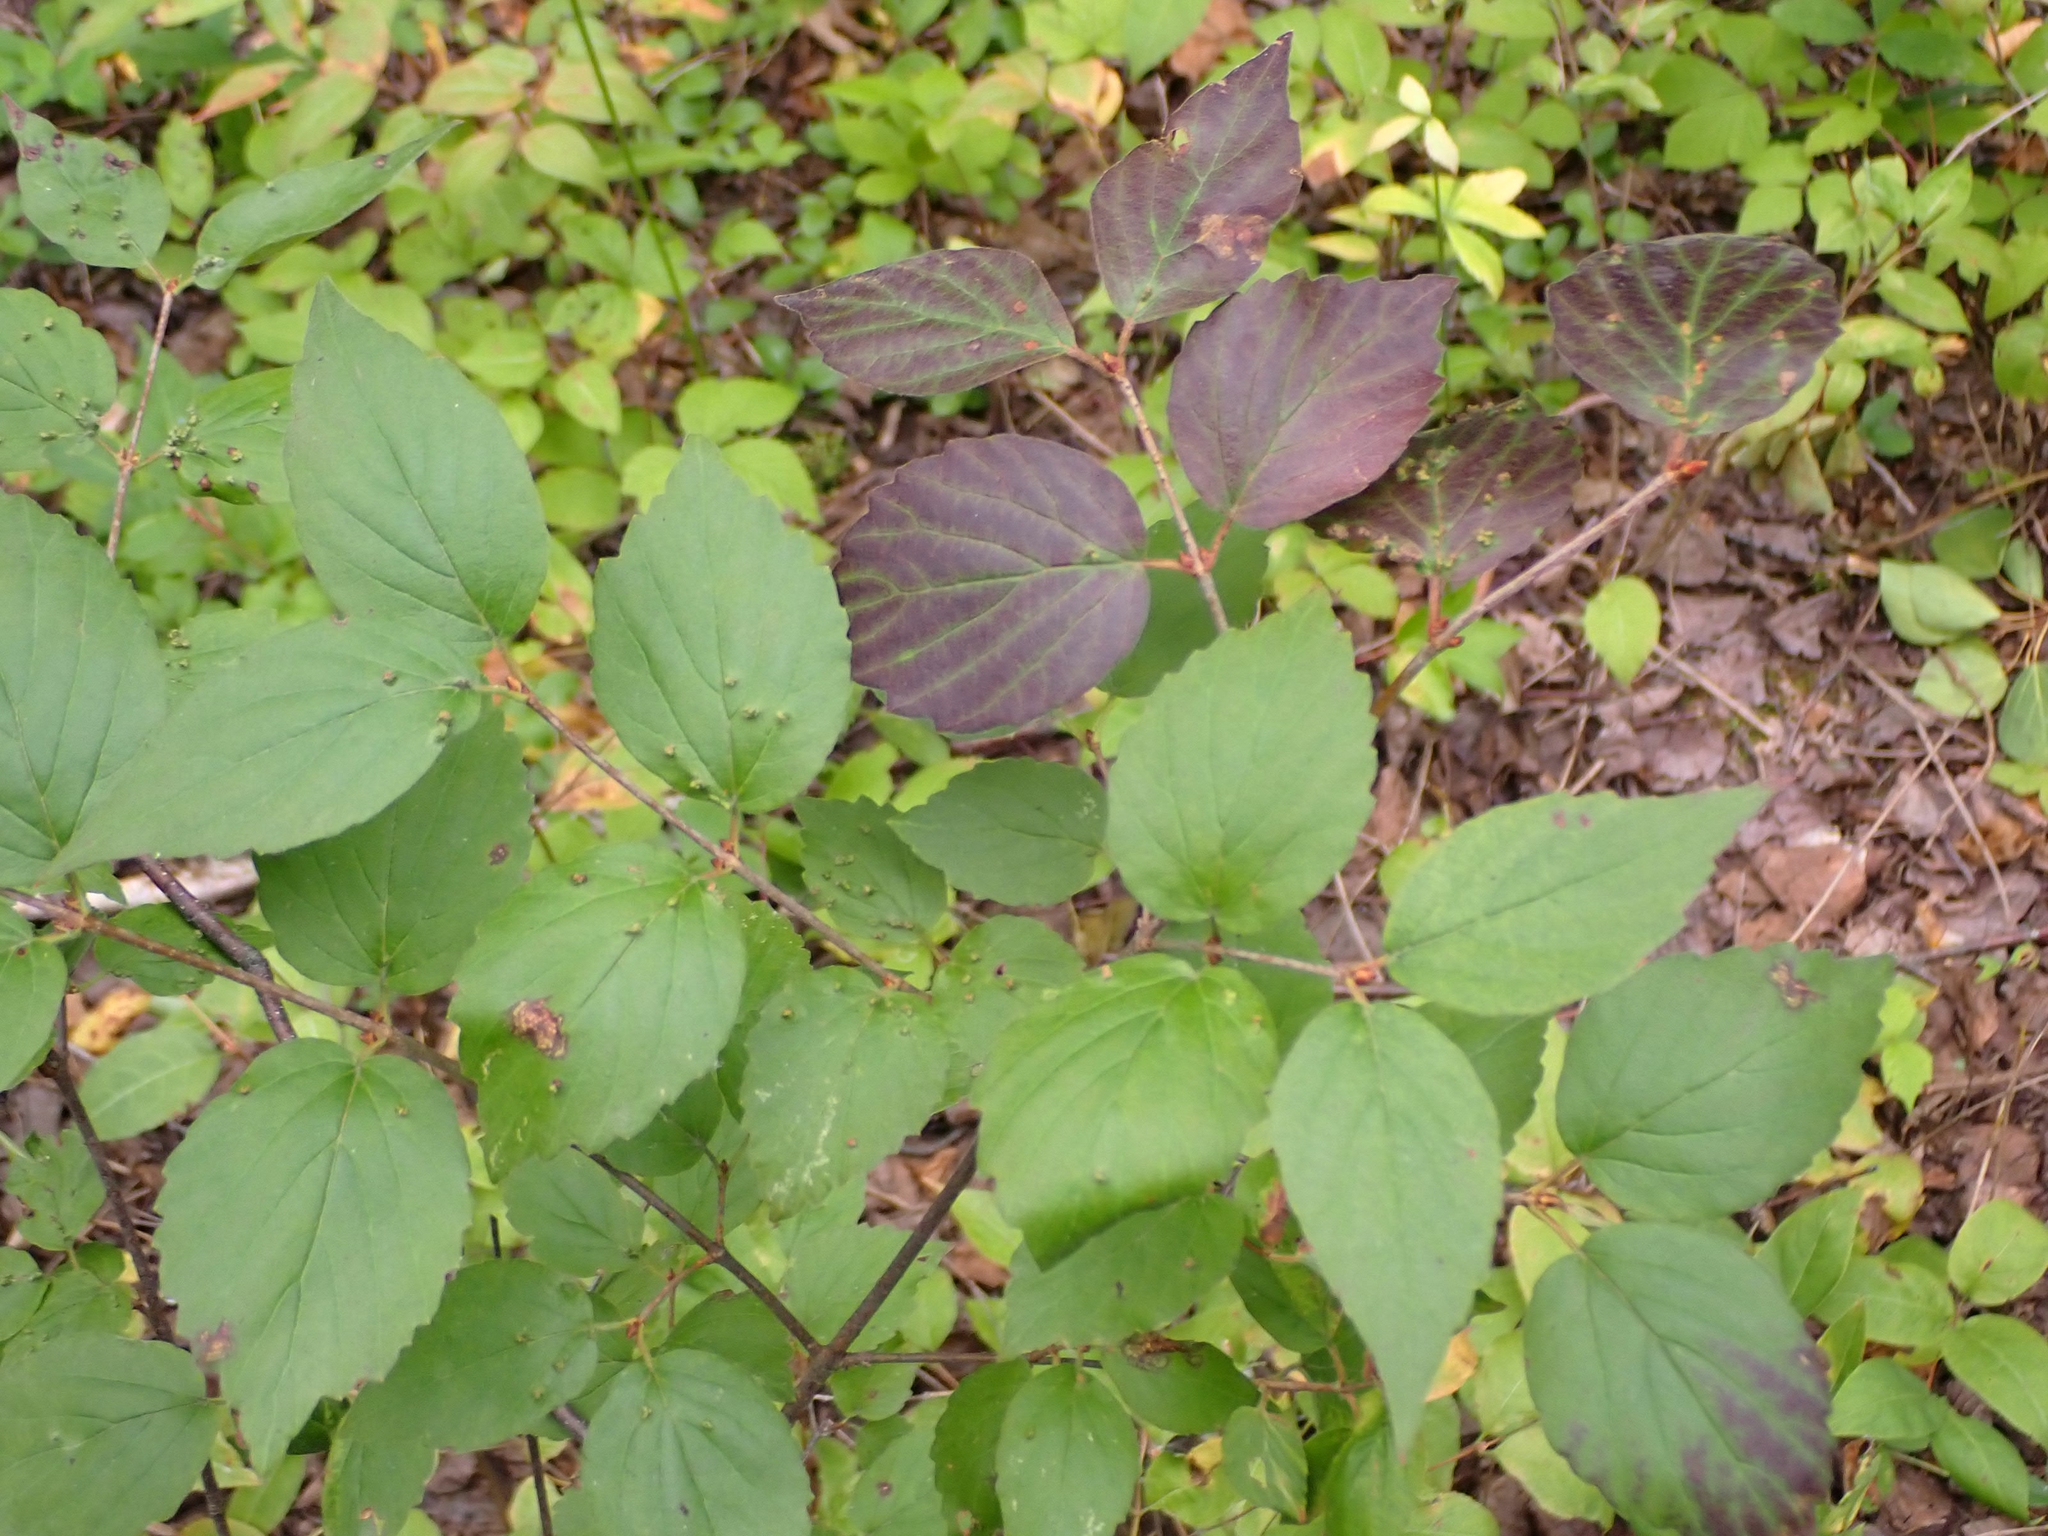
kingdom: Plantae
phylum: Tracheophyta
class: Magnoliopsida
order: Dipsacales
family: Viburnaceae
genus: Viburnum
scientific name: Viburnum rafinesqueanum
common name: Downy arrow-wood
